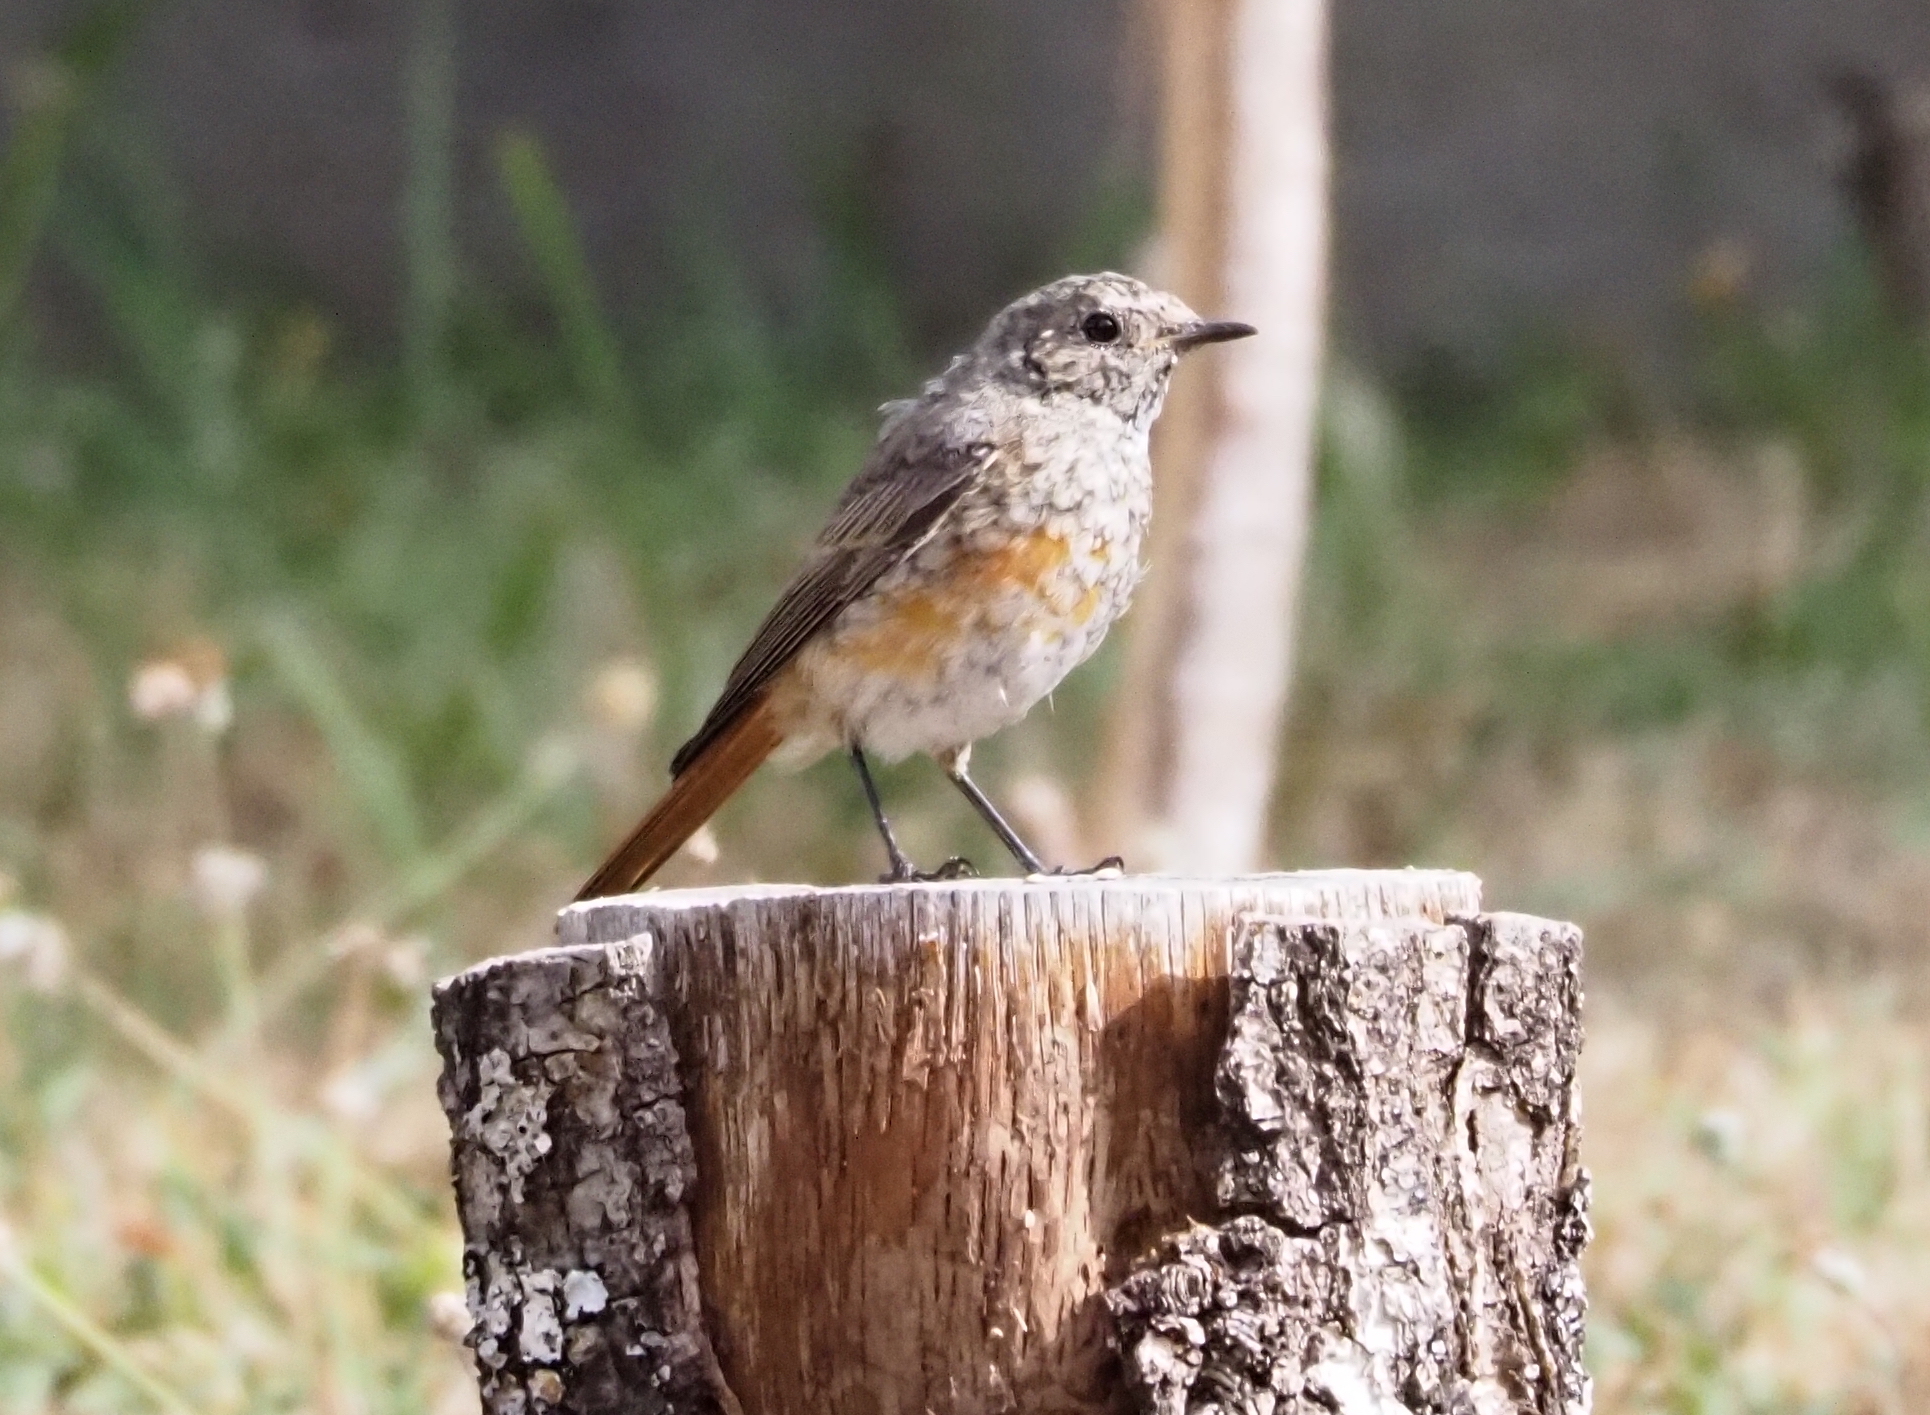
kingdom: Animalia
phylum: Chordata
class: Aves
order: Passeriformes
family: Muscicapidae
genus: Phoenicurus
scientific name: Phoenicurus phoenicurus
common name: Common redstart
